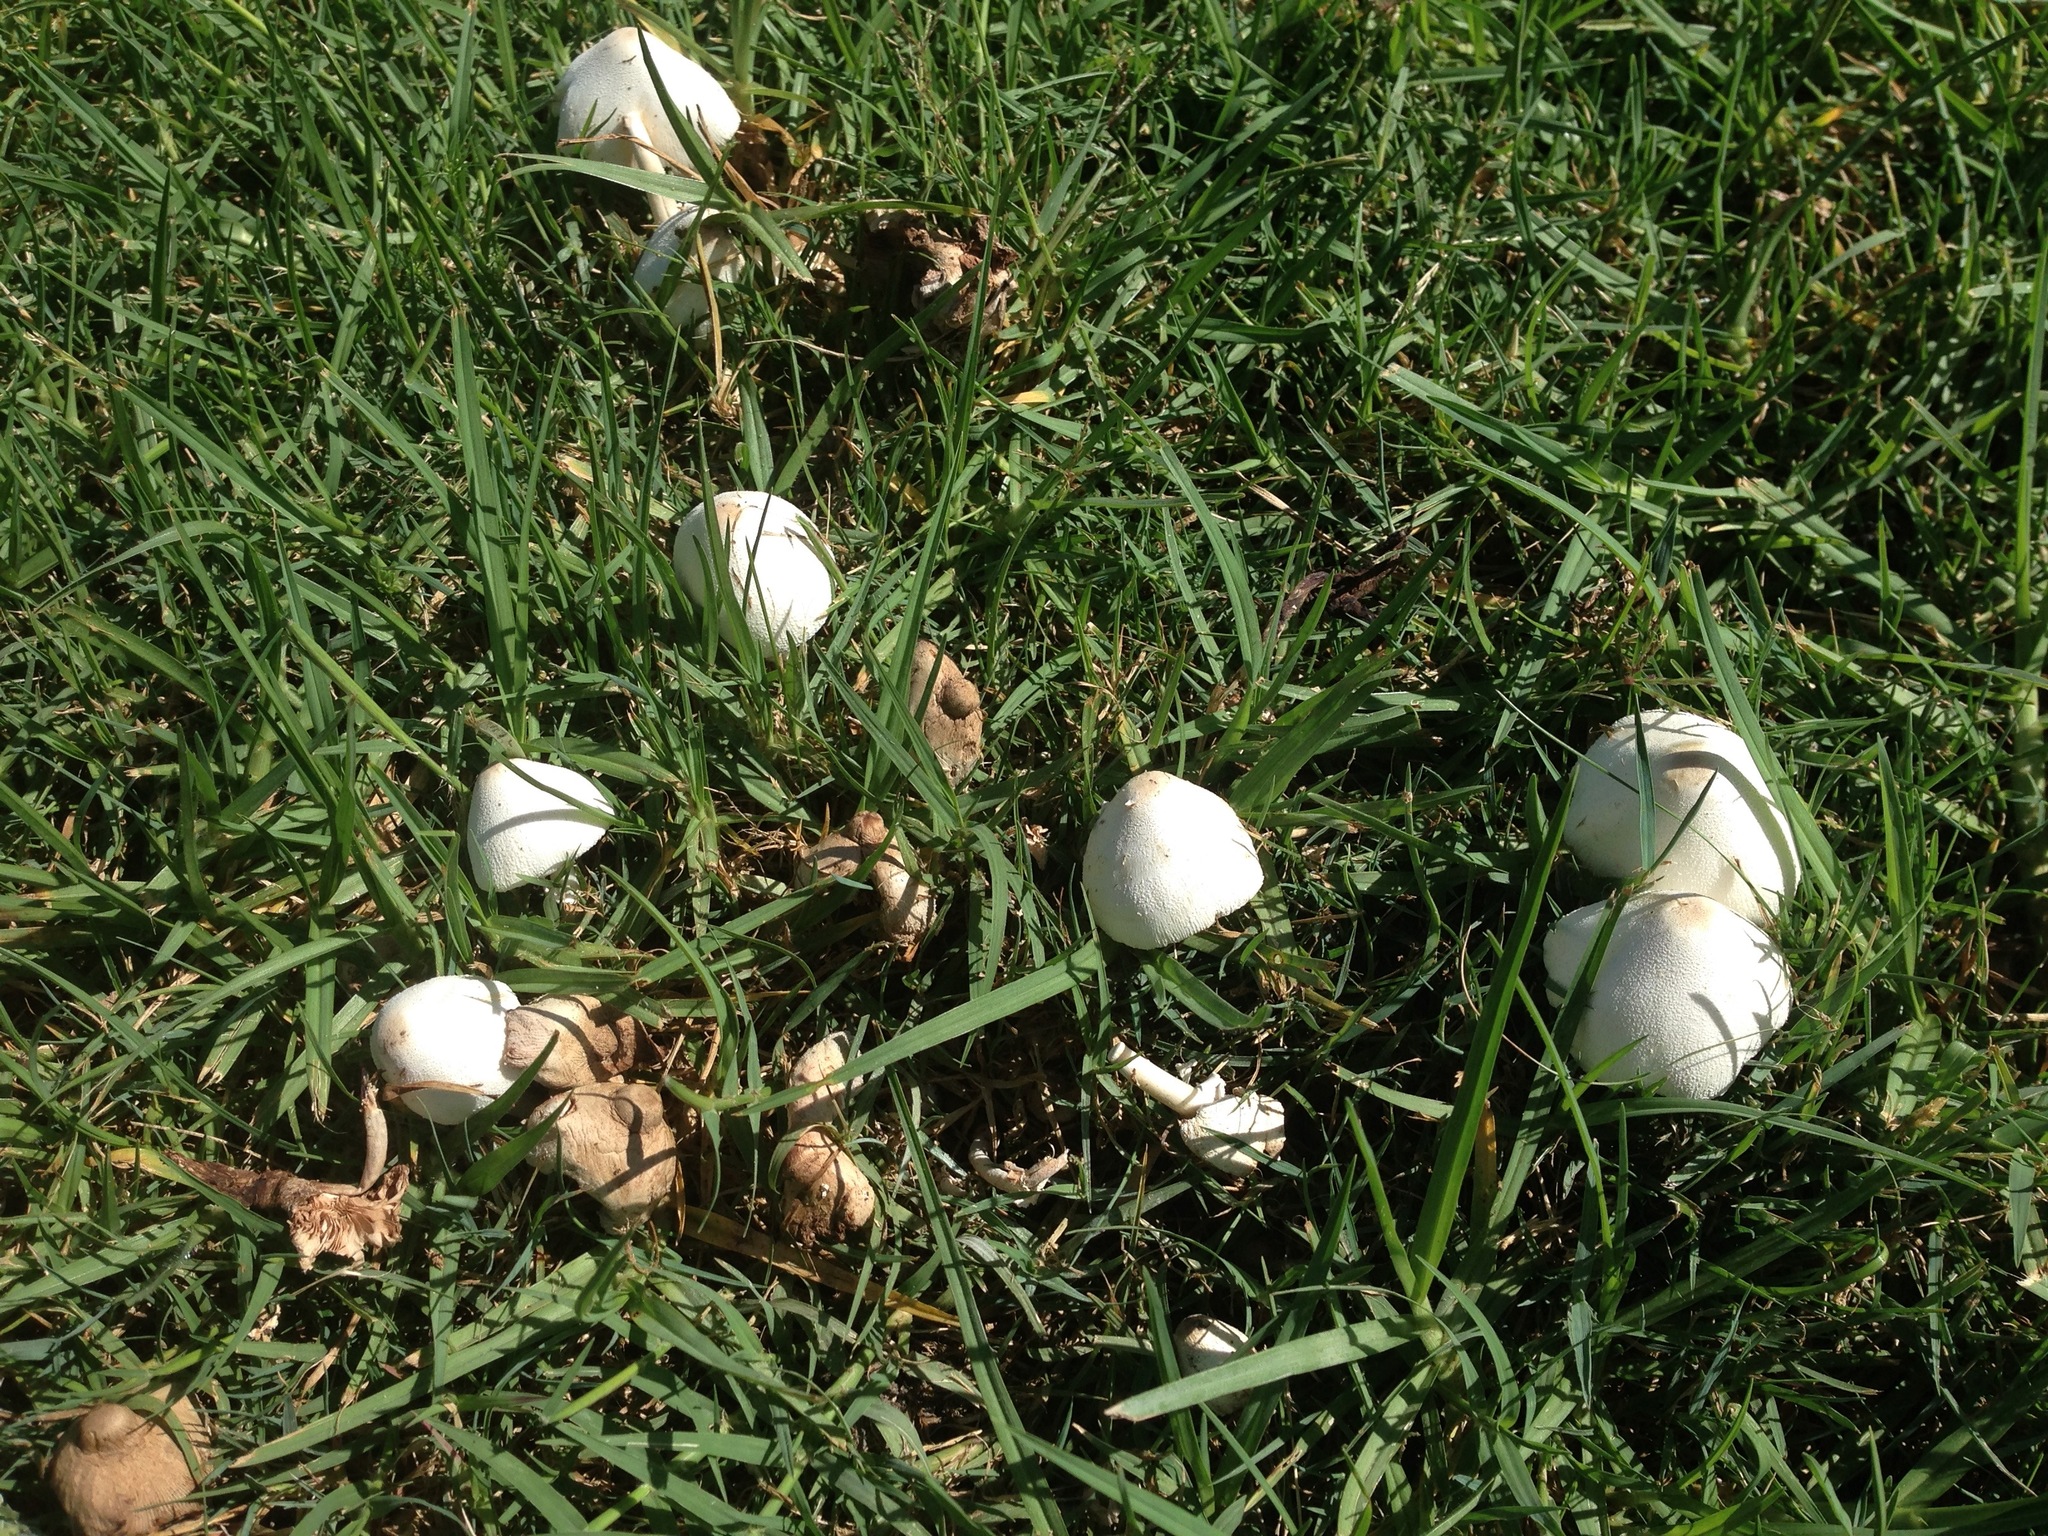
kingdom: Fungi
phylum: Basidiomycota
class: Agaricomycetes
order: Agaricales
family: Agaricaceae
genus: Leucocoprinus
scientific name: Leucocoprinus cepistipes
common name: Onion-stalk parasol
